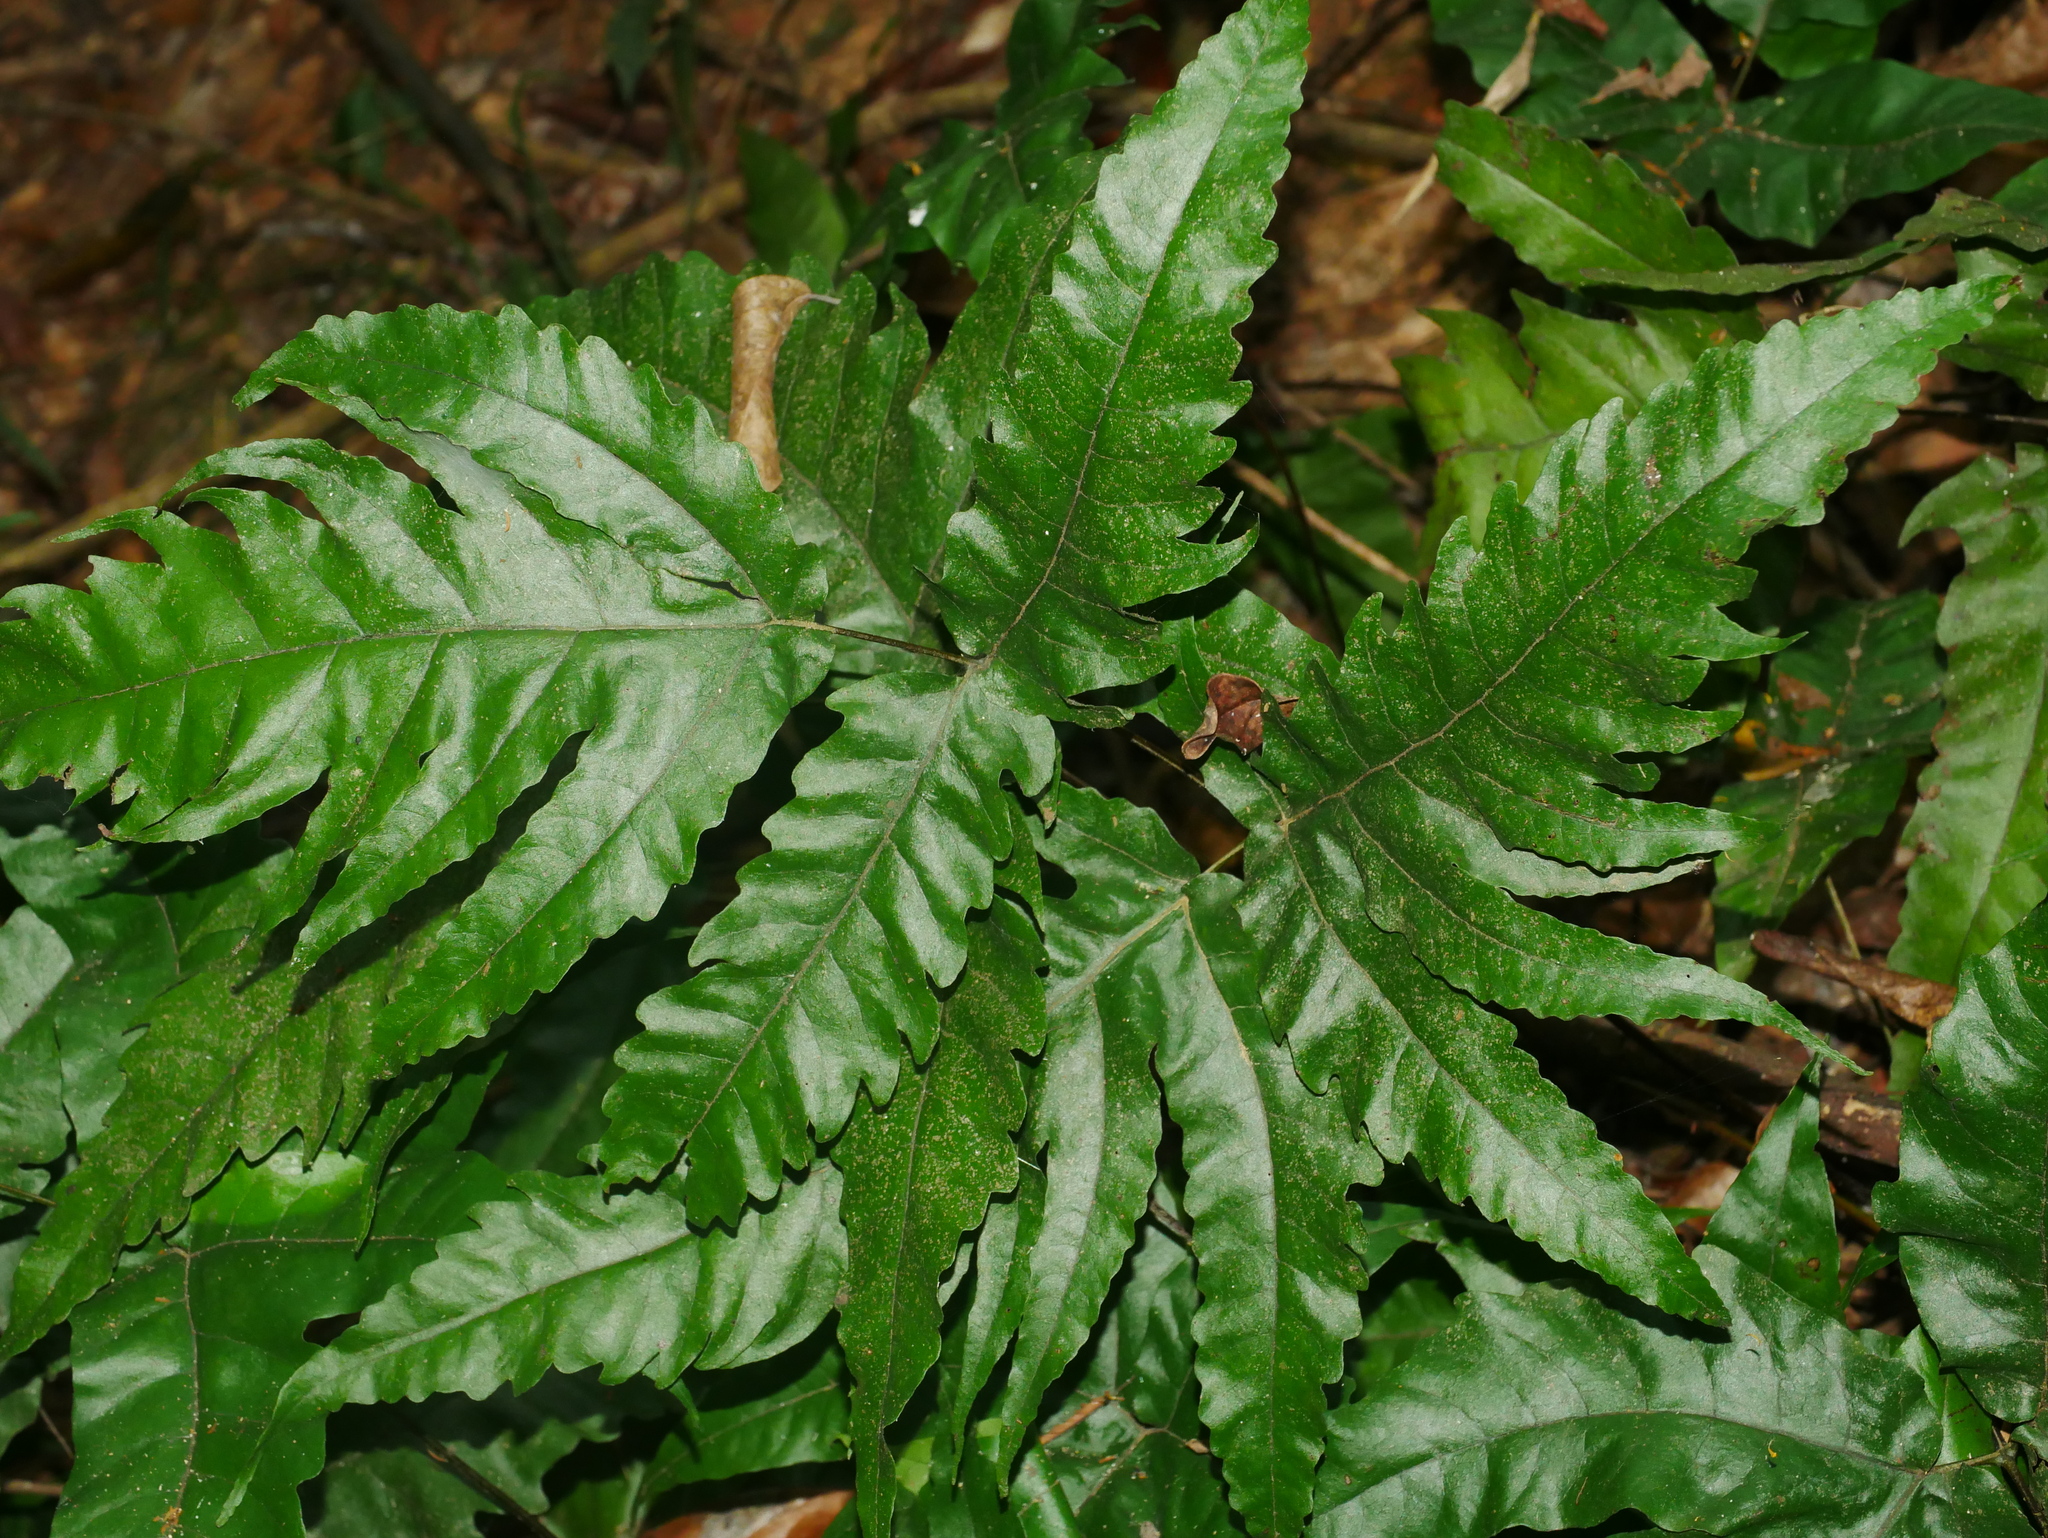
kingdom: Plantae
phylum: Tracheophyta
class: Polypodiopsida
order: Polypodiales
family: Tectariaceae
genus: Tectaria
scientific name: Tectaria subtriphylla
